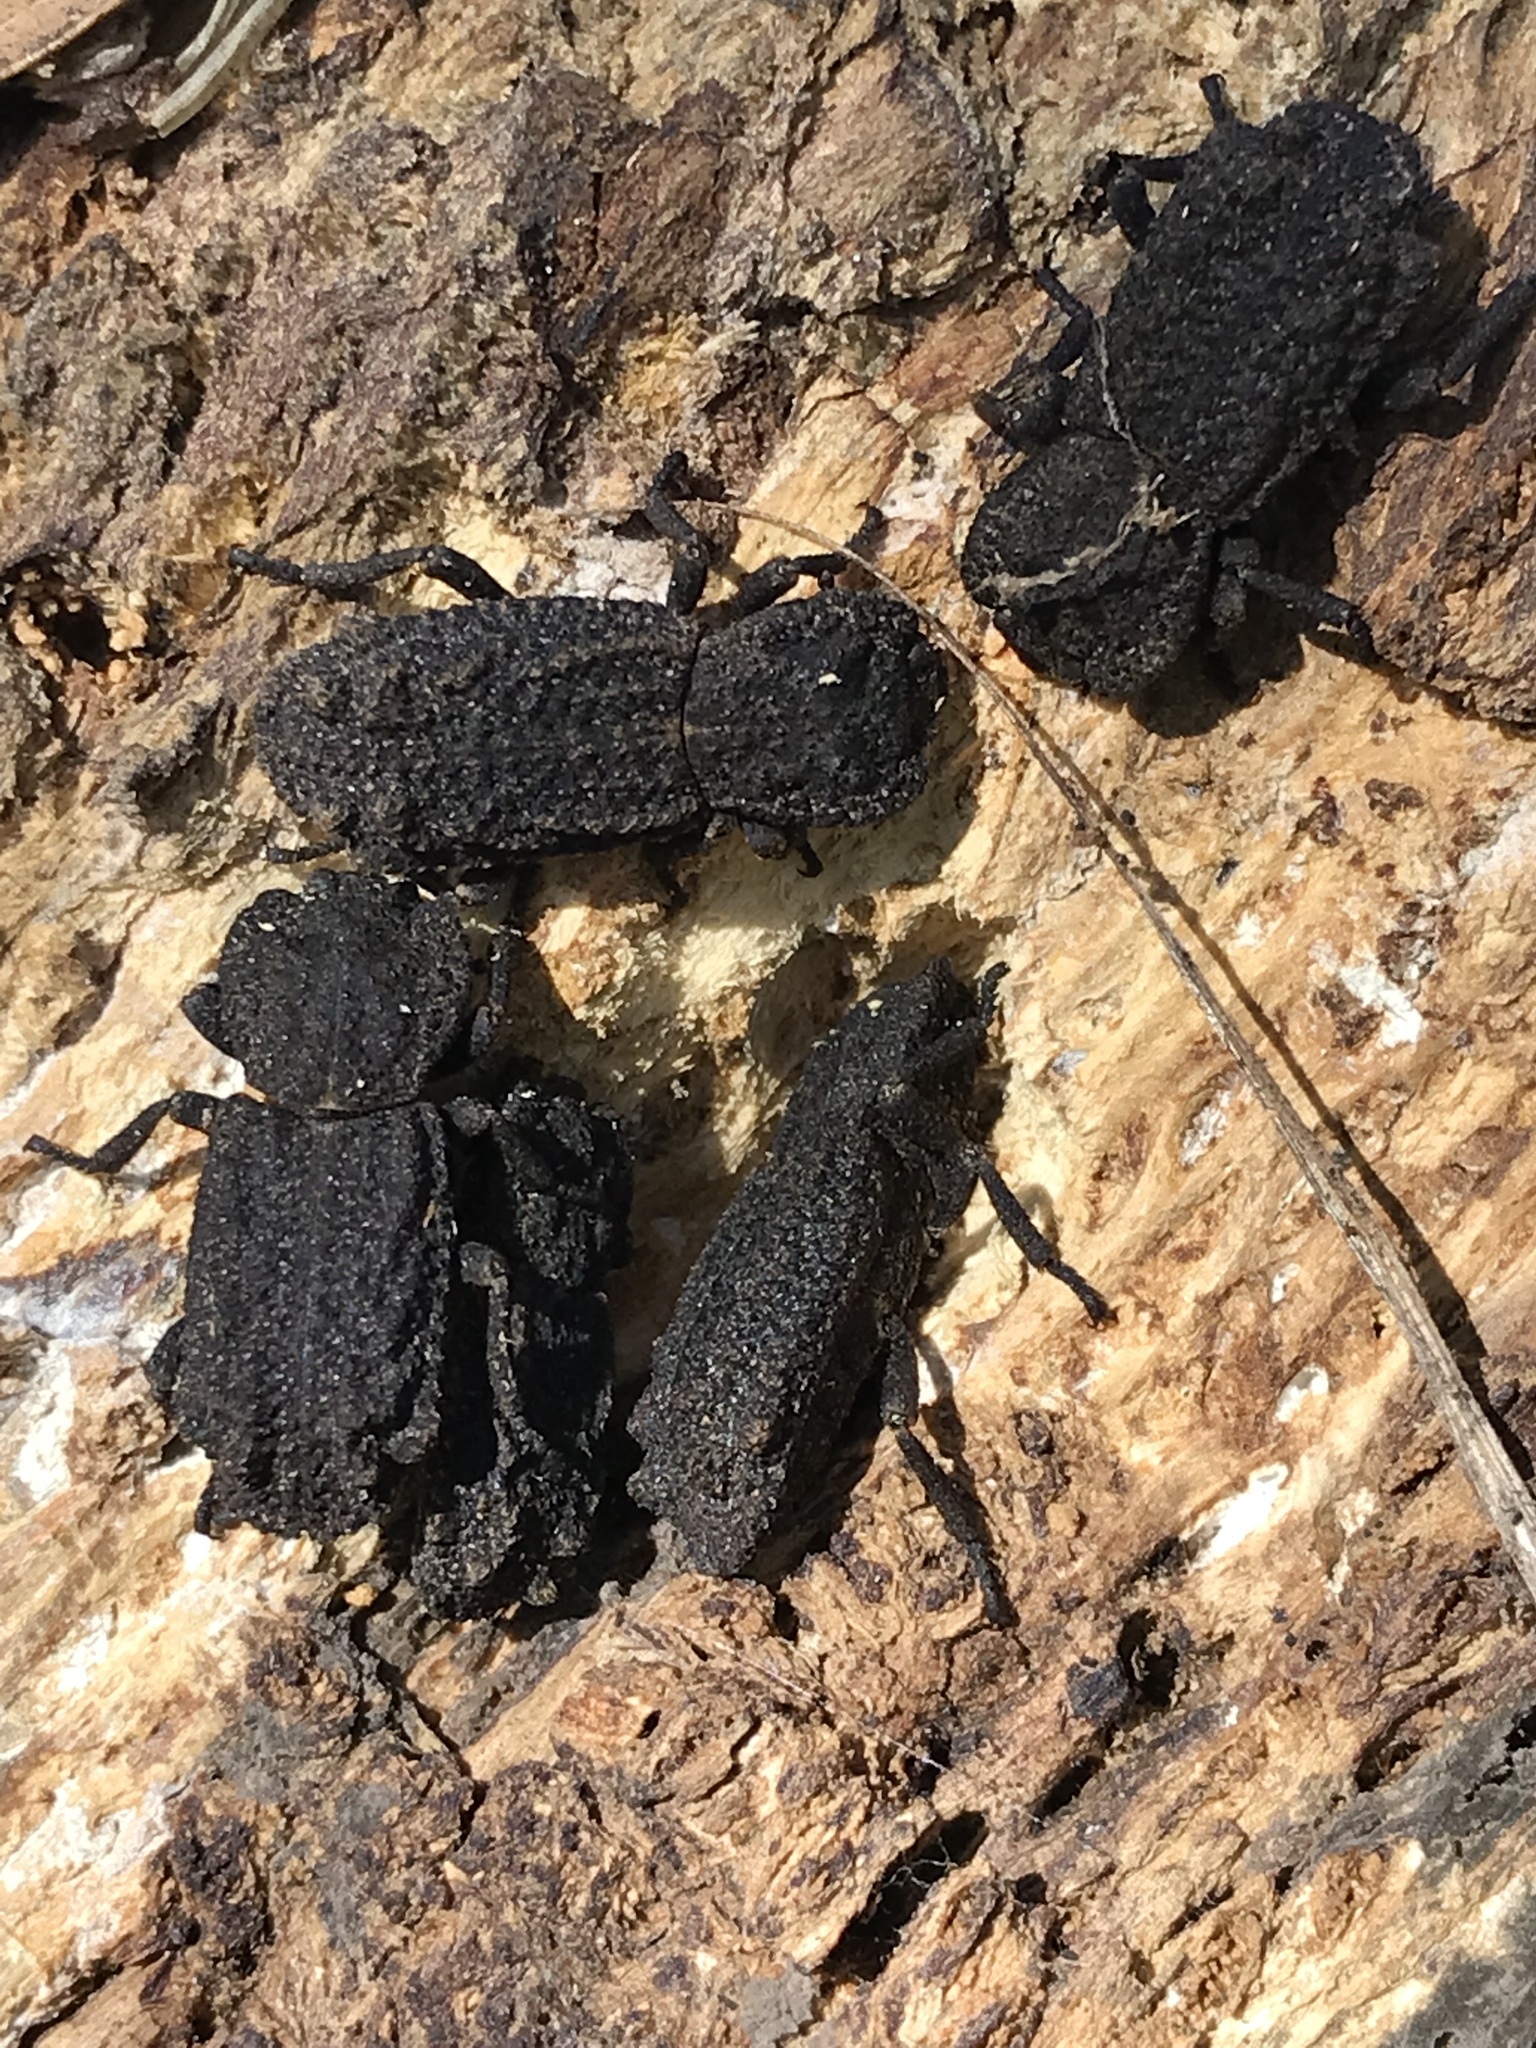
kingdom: Animalia
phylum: Arthropoda
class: Insecta
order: Coleoptera
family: Zopheridae
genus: Phloeodes
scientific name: Phloeodes plicatus
